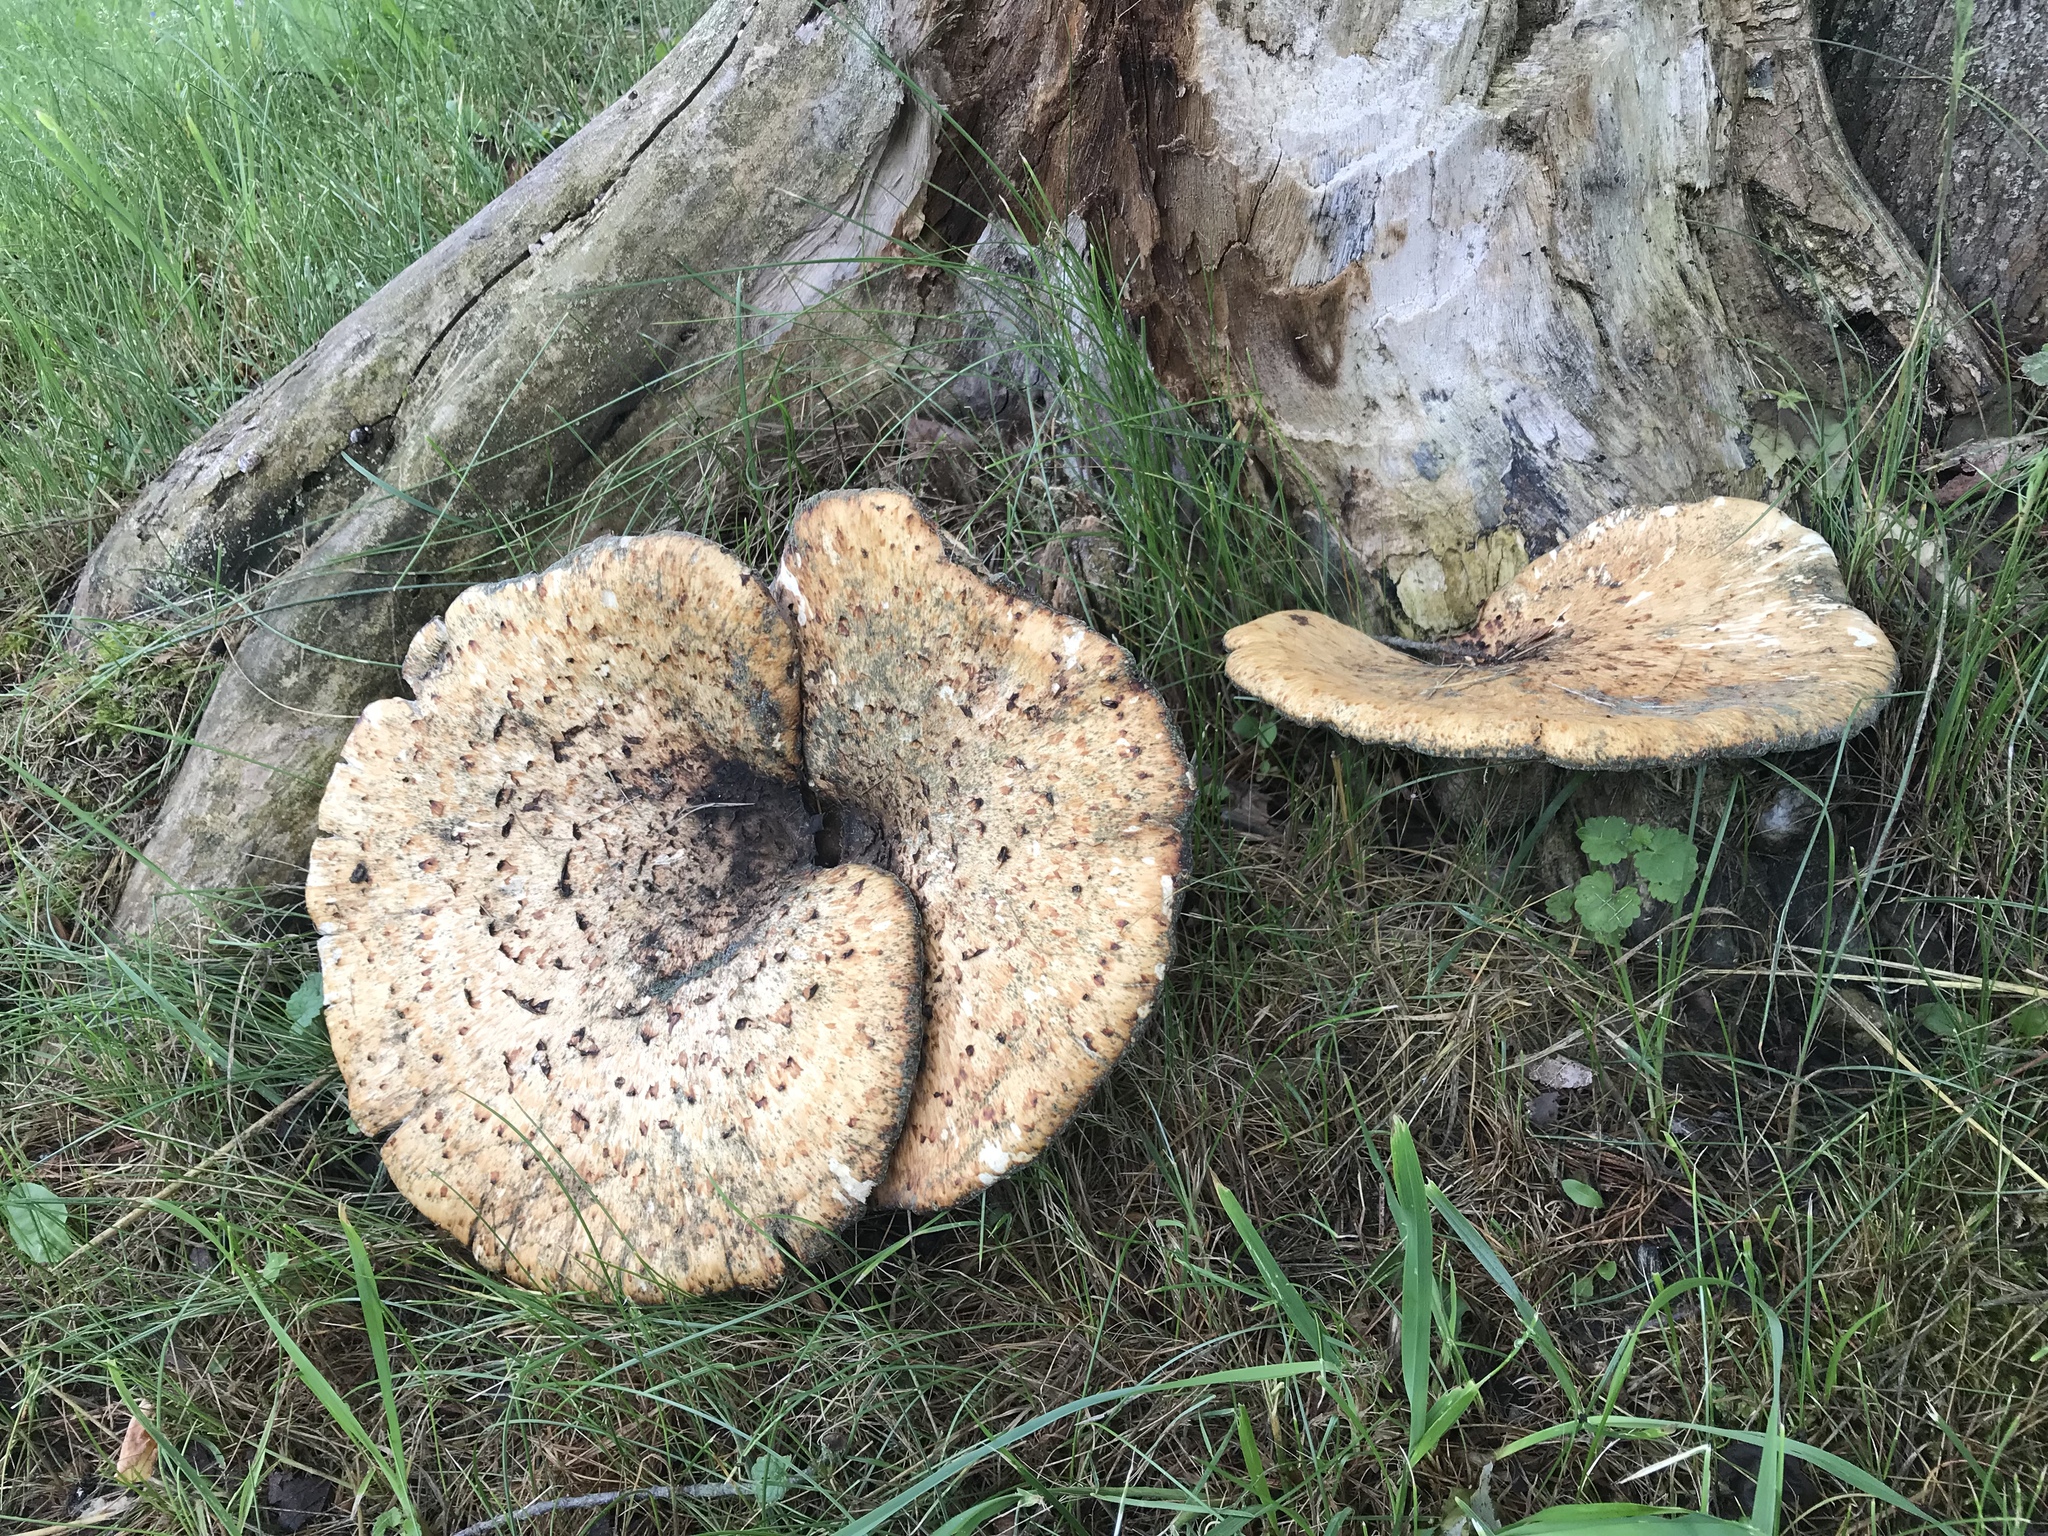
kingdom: Fungi
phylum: Basidiomycota
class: Agaricomycetes
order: Polyporales
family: Polyporaceae
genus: Cerioporus
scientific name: Cerioporus squamosus
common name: Dryad's saddle
